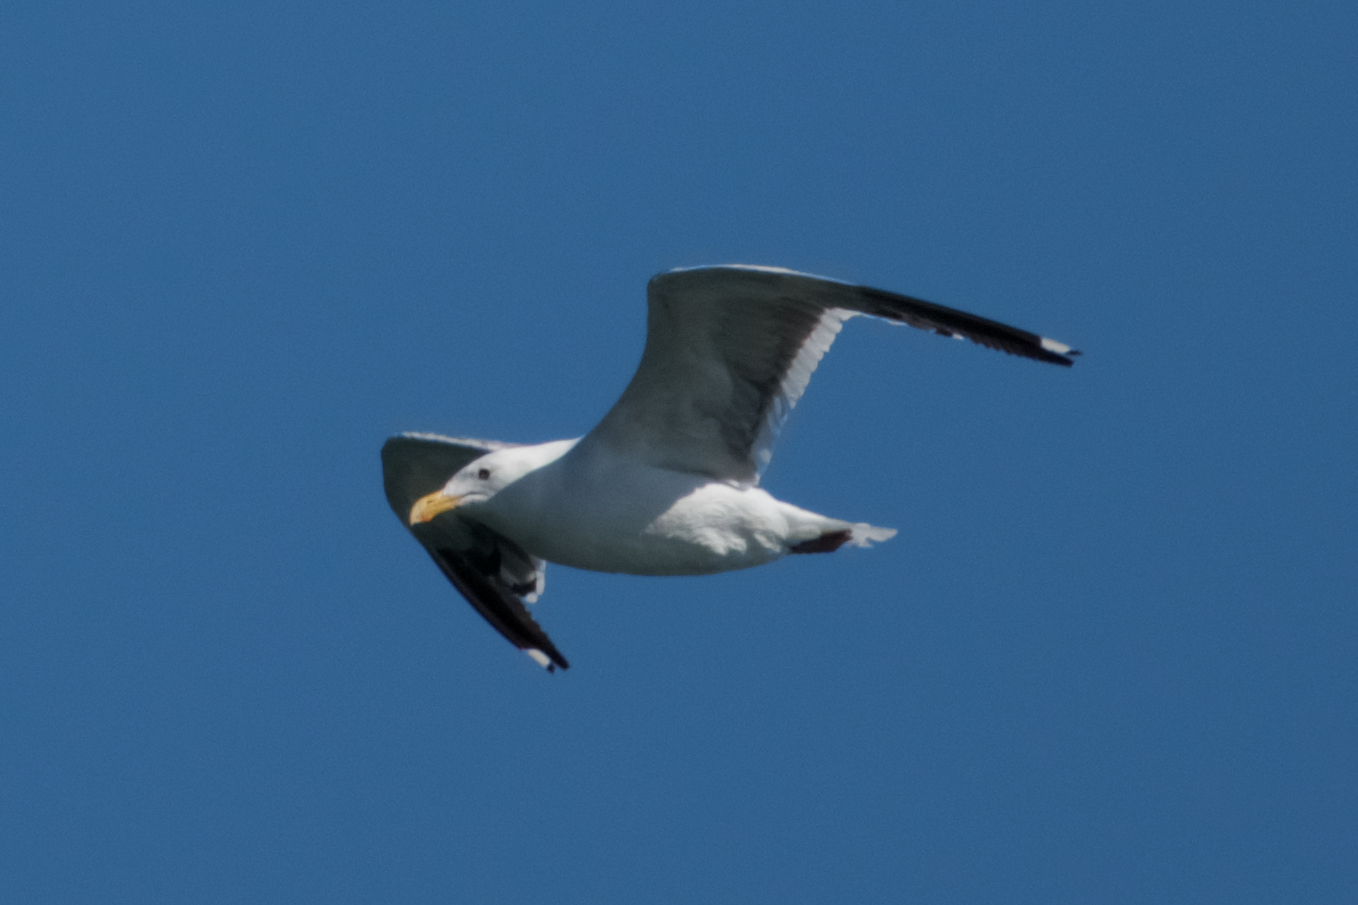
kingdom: Animalia
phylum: Chordata
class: Aves
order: Charadriiformes
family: Laridae
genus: Larus
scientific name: Larus occidentalis
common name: Western gull
